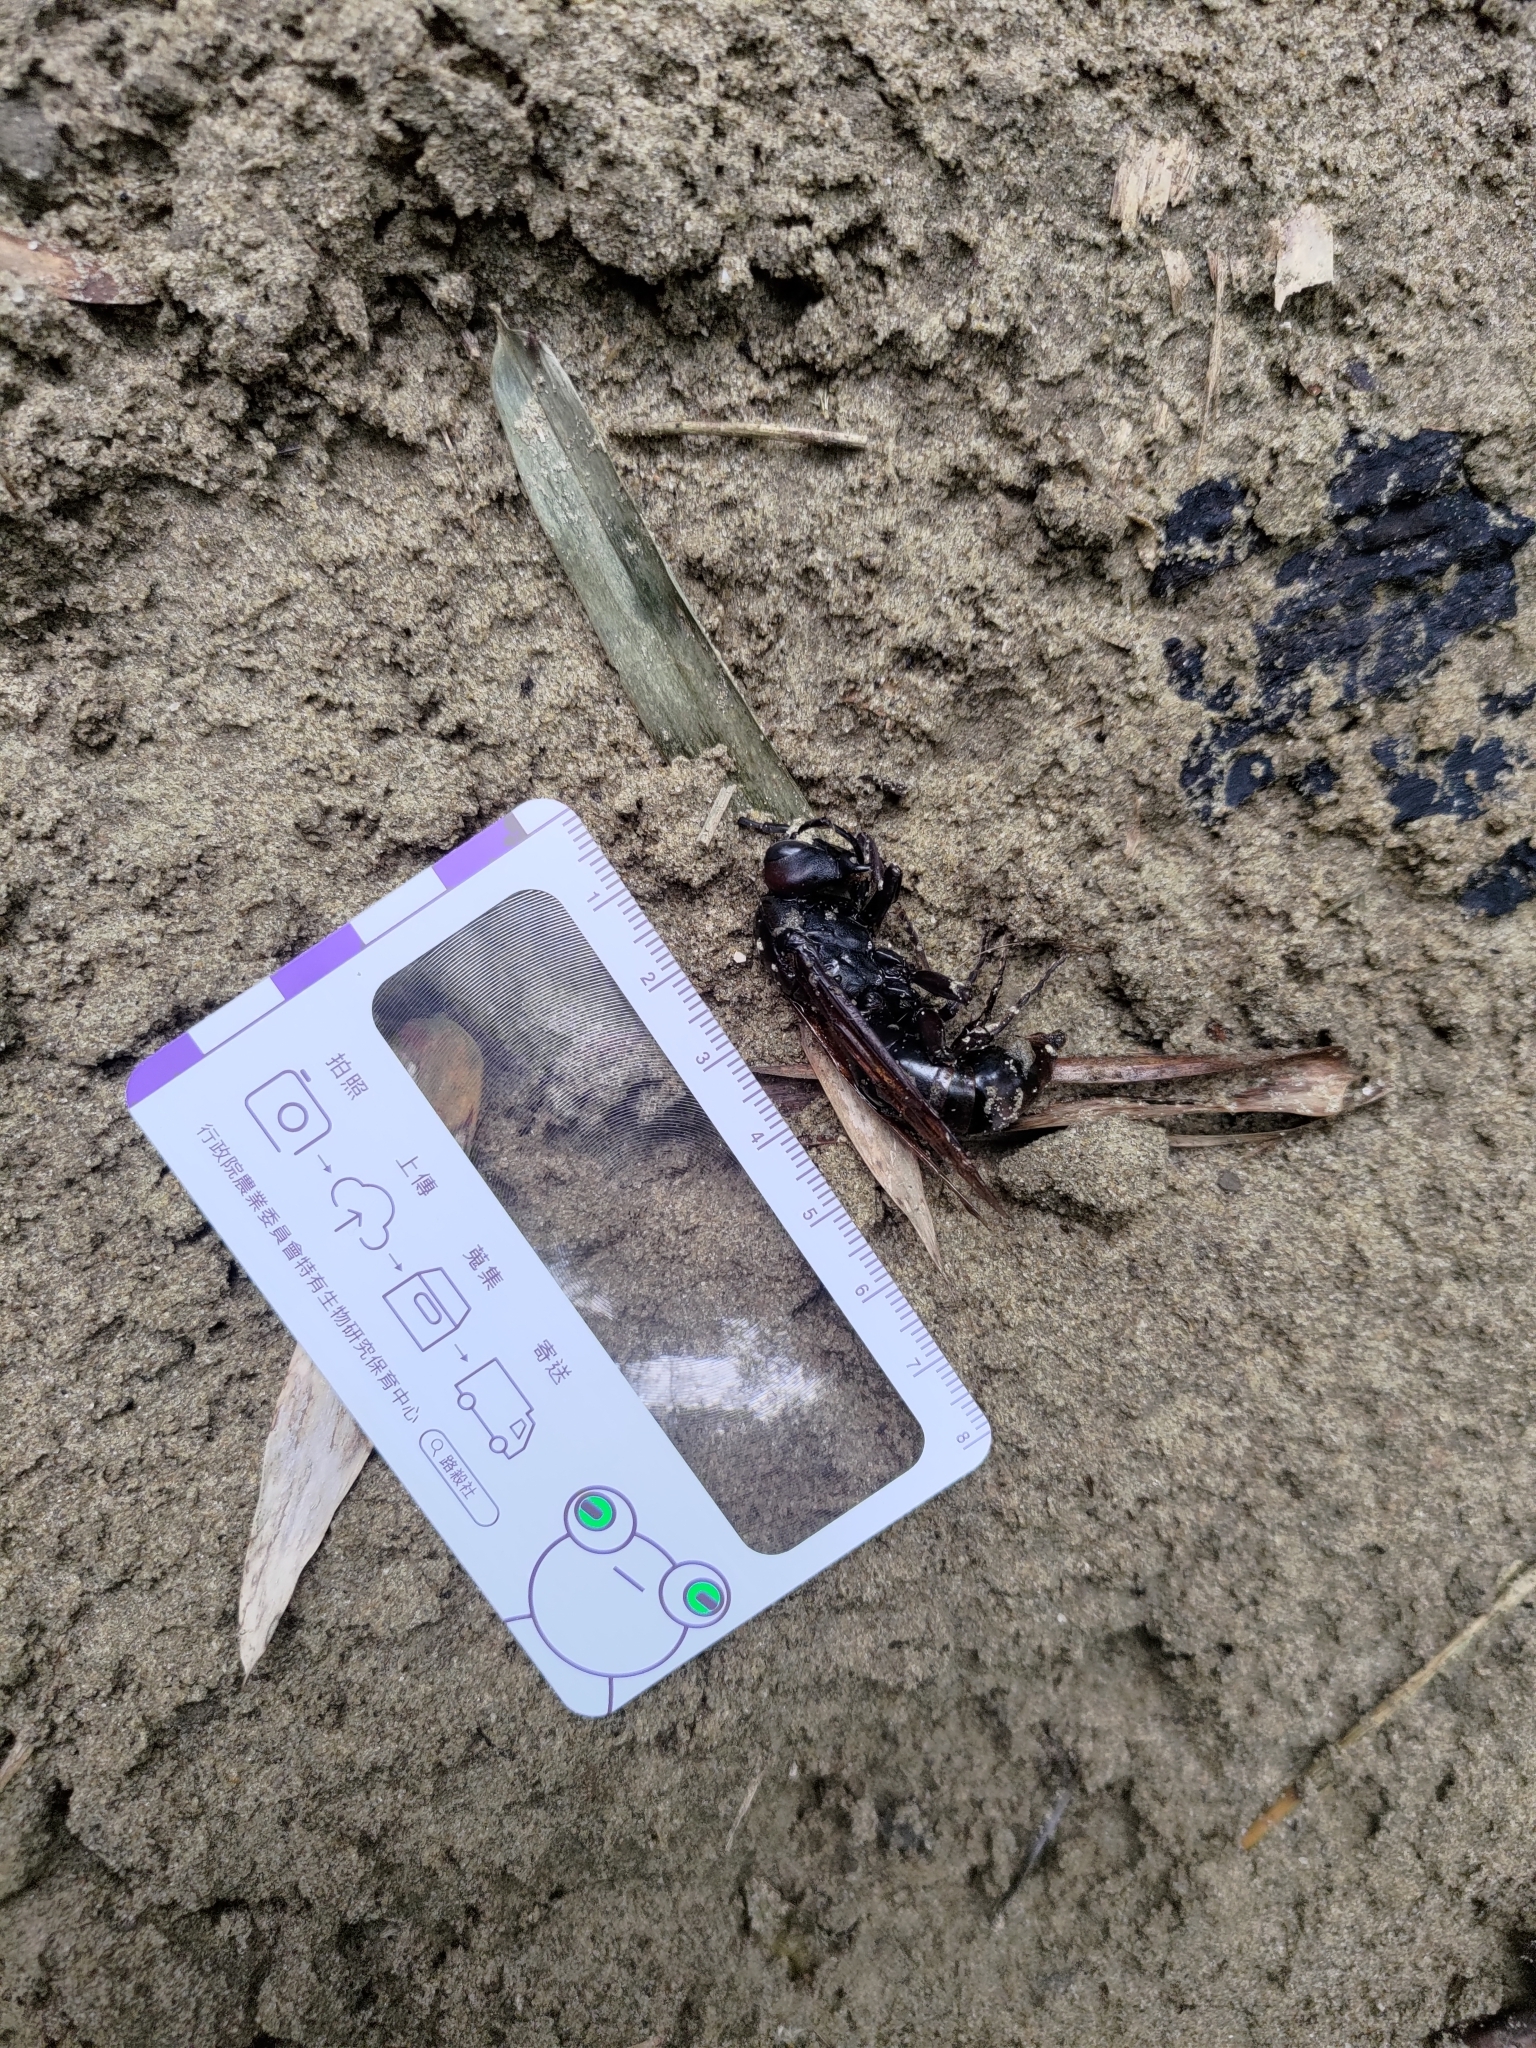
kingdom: Animalia
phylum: Arthropoda
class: Insecta
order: Hymenoptera
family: Eumenidae
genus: Polistes
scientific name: Polistes gigas
